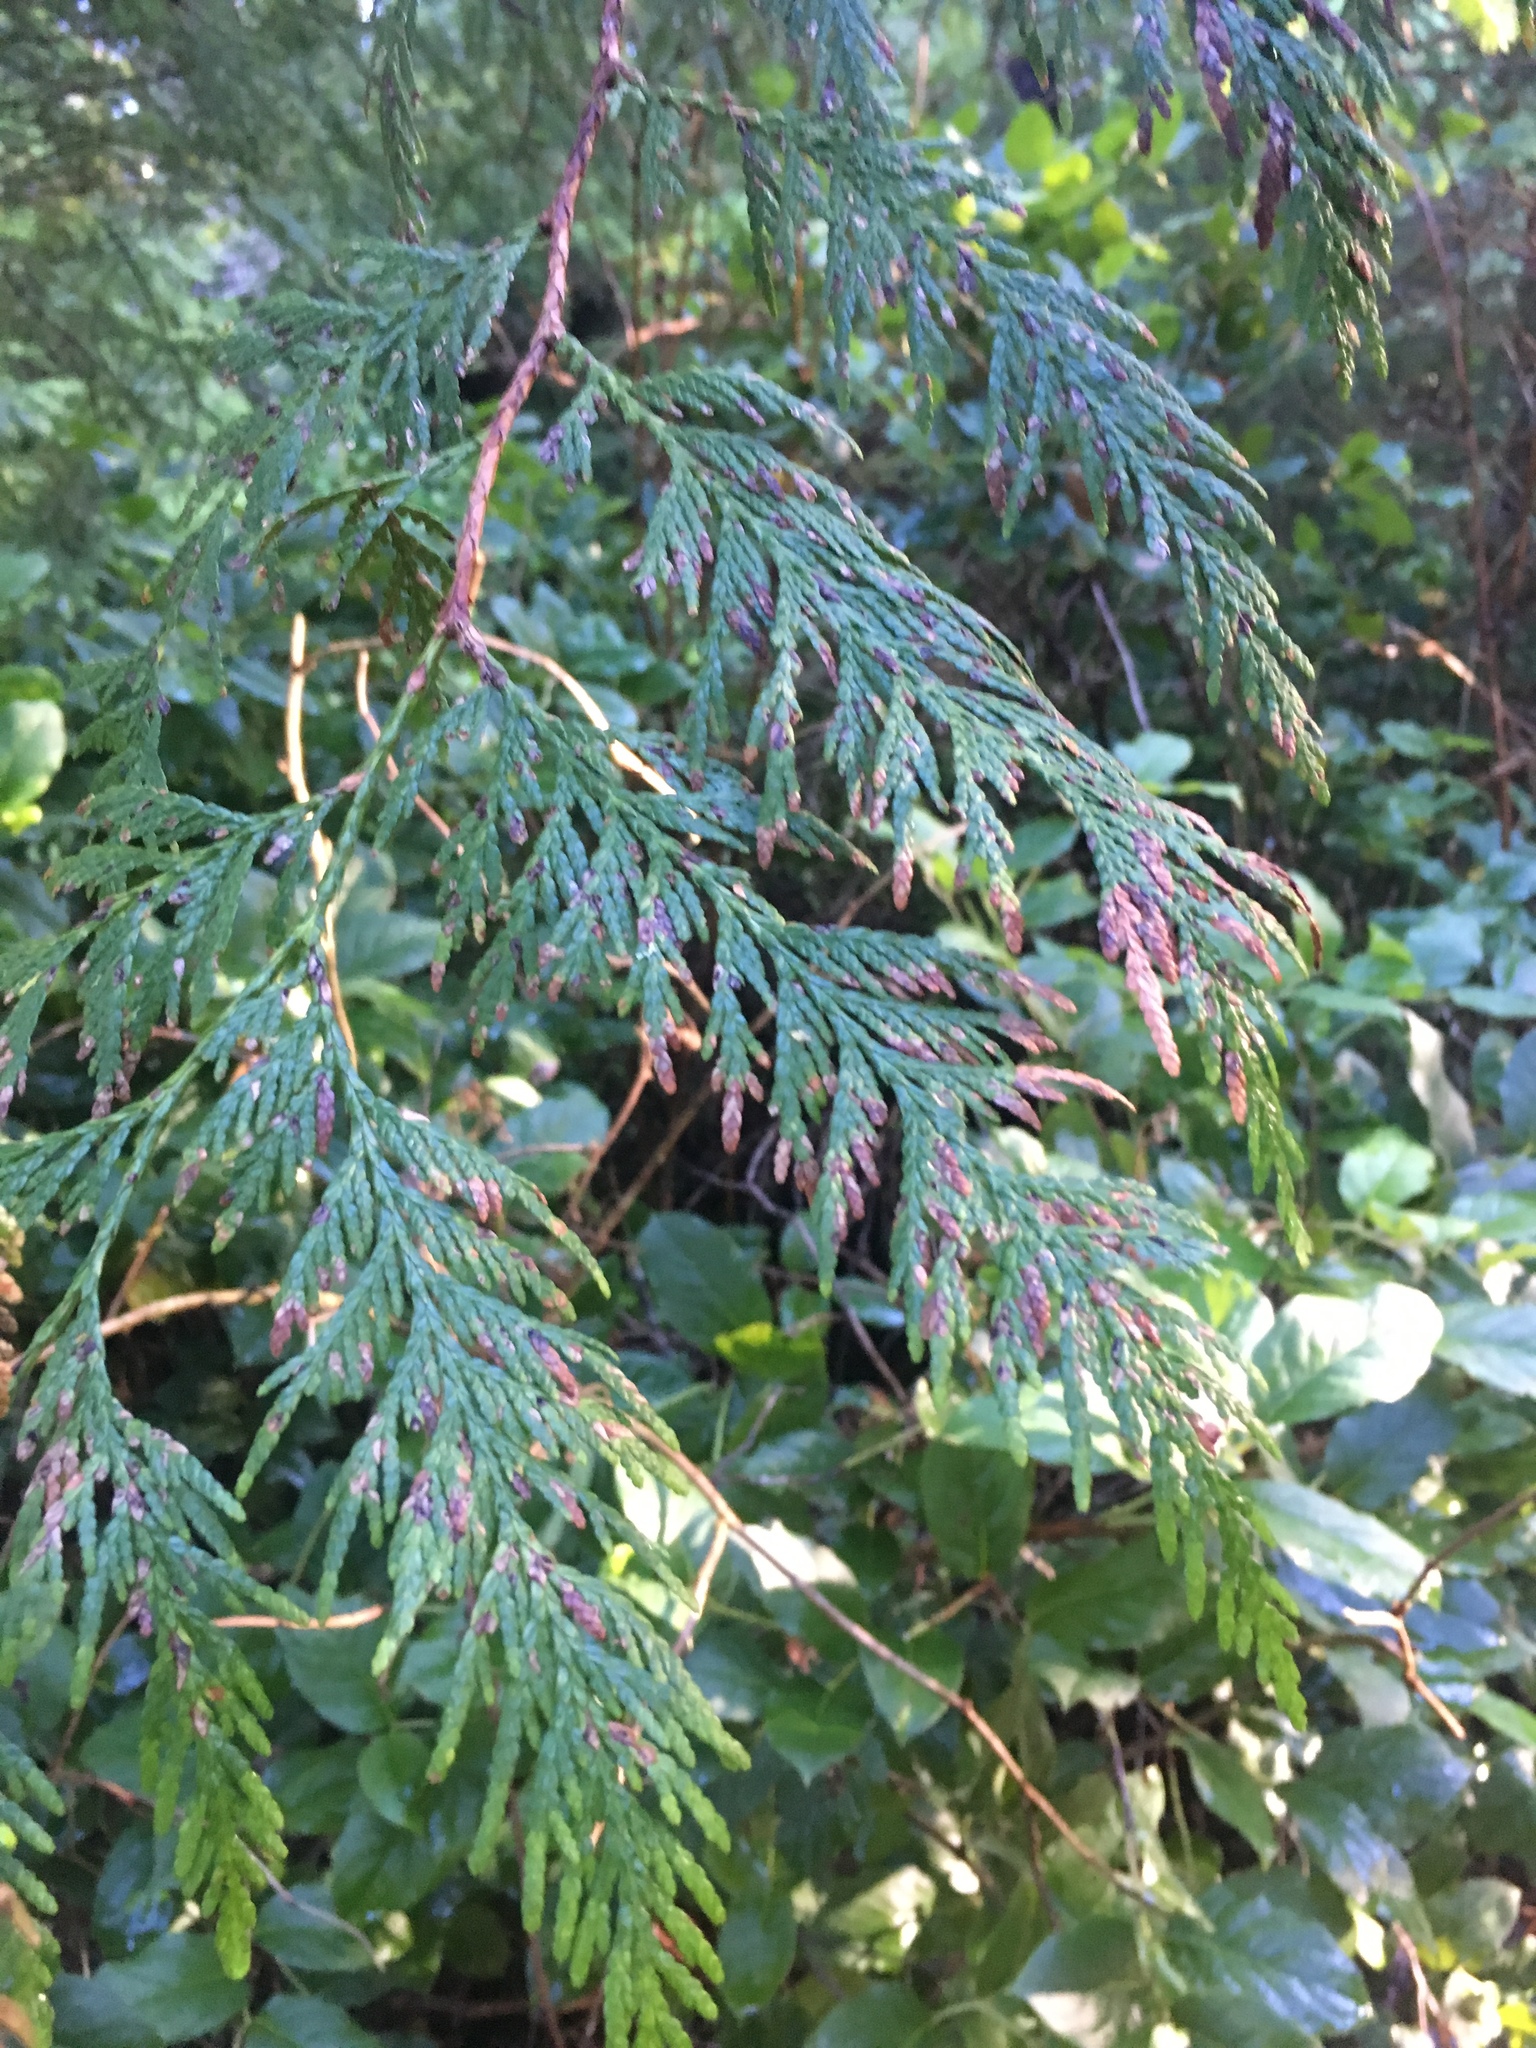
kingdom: Plantae
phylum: Tracheophyta
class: Pinopsida
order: Pinales
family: Cupressaceae
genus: Thuja
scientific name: Thuja plicata
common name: Western red-cedar
